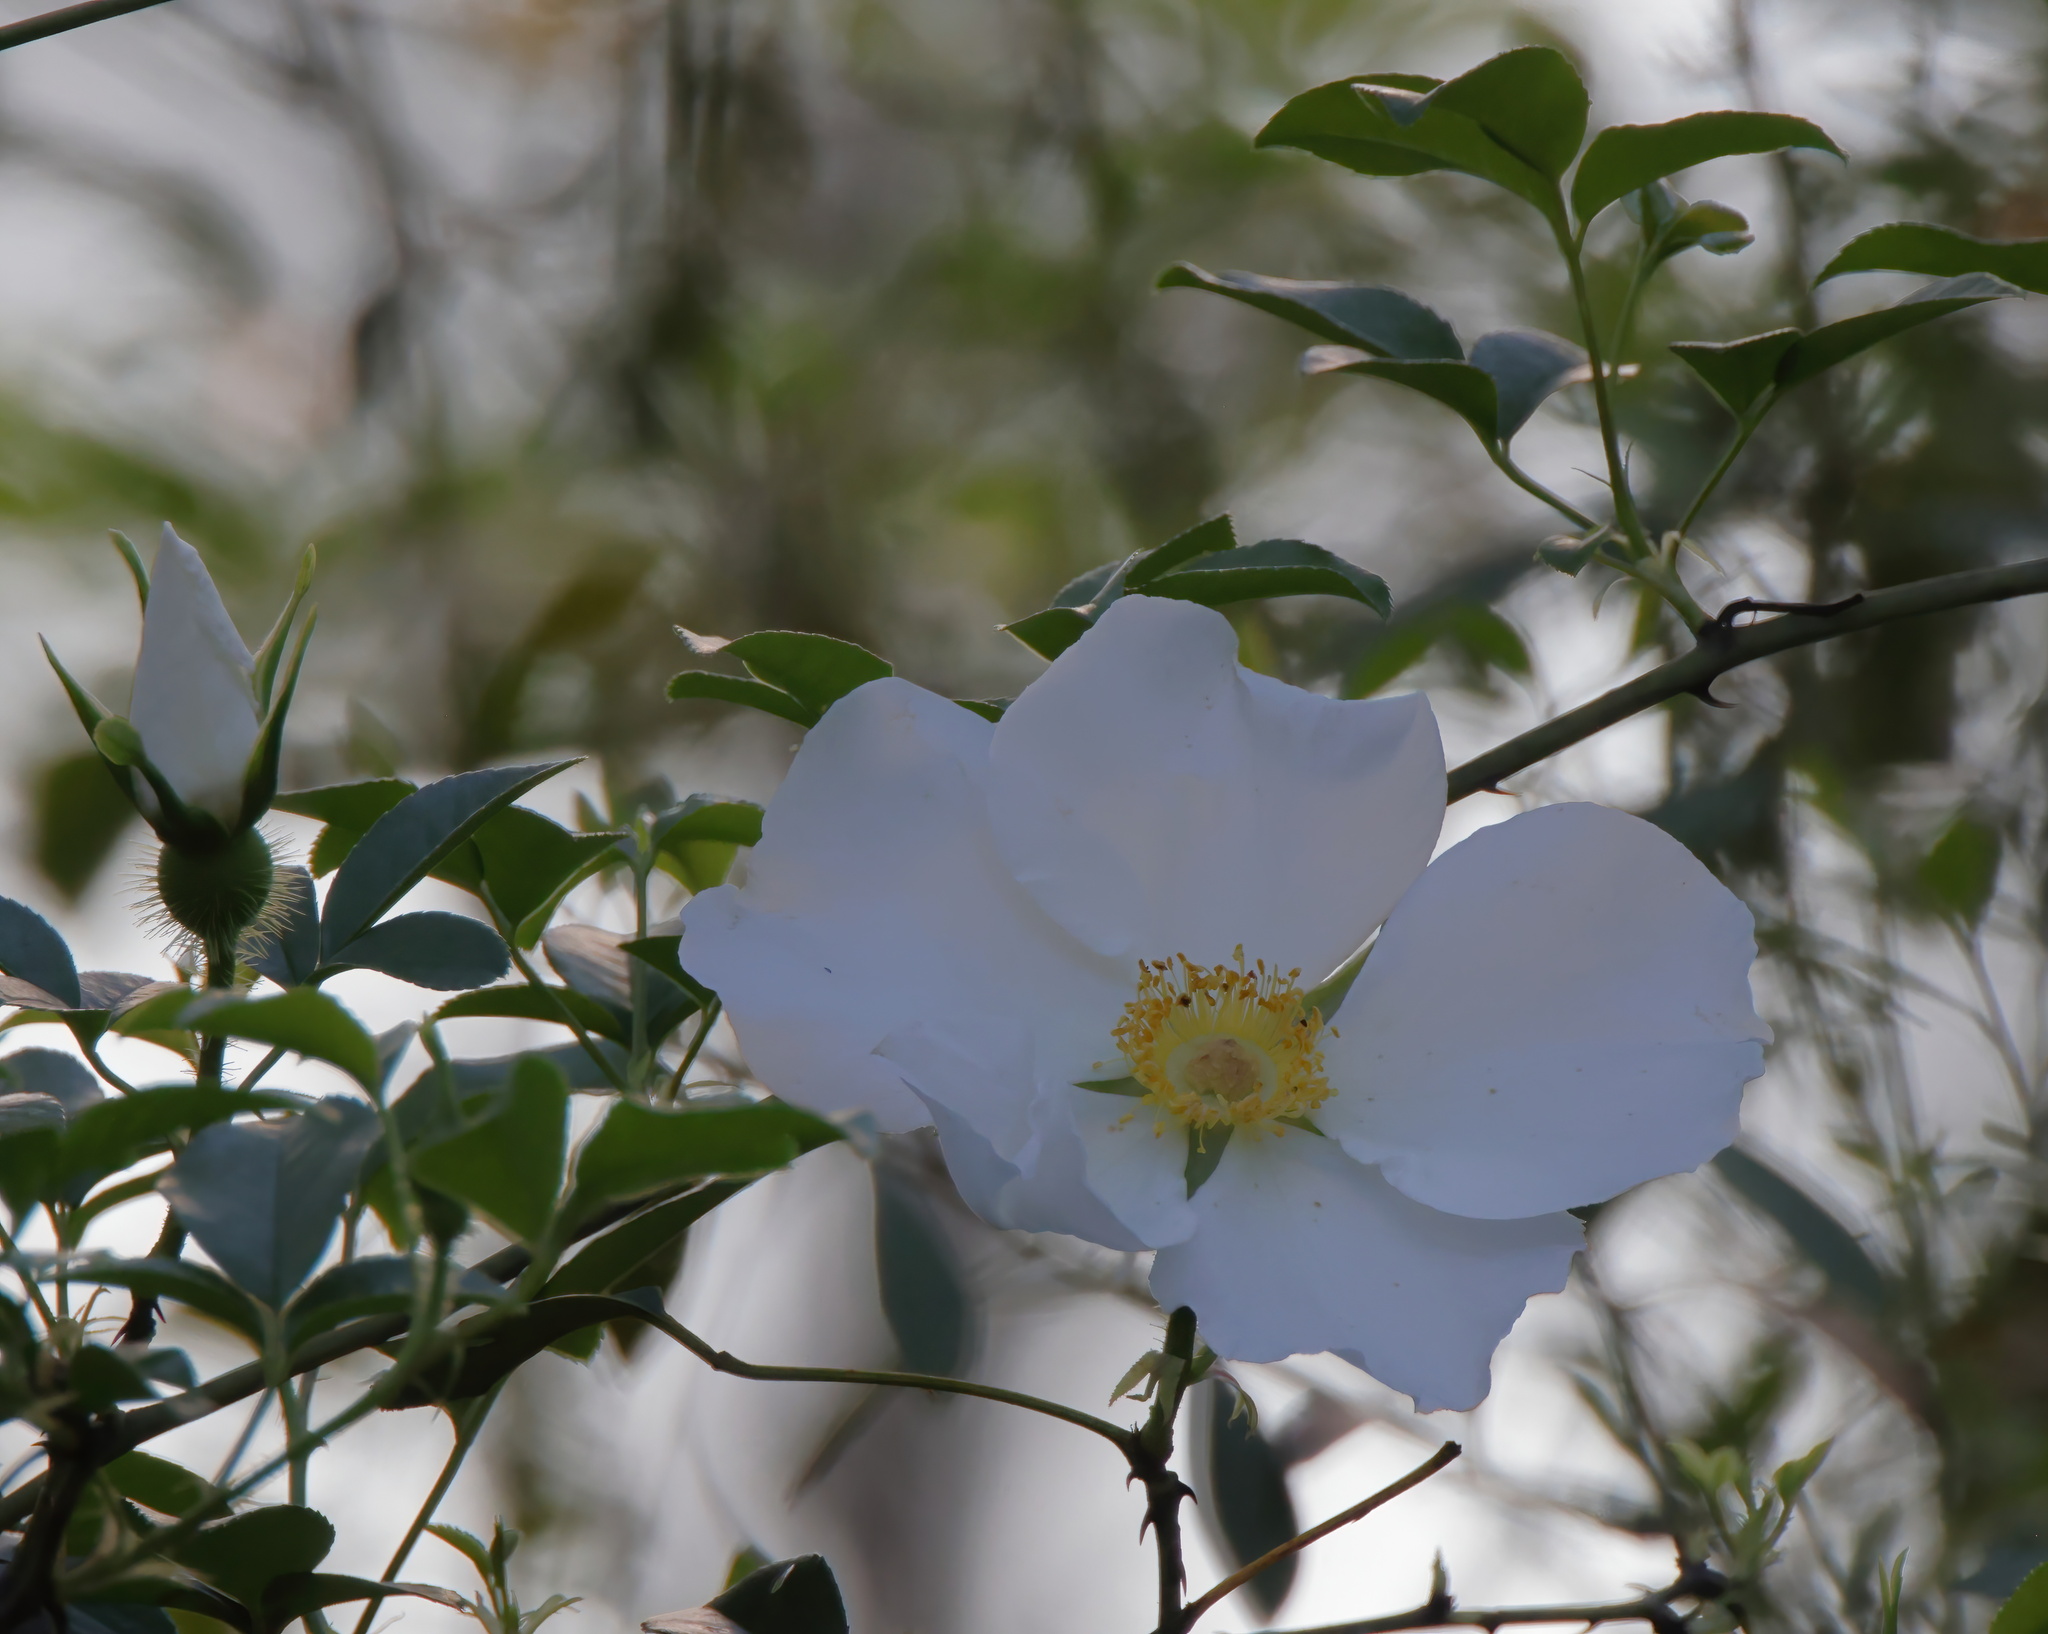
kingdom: Plantae
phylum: Tracheophyta
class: Magnoliopsida
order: Rosales
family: Rosaceae
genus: Rosa
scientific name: Rosa laevigata
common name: Cherokee rose
